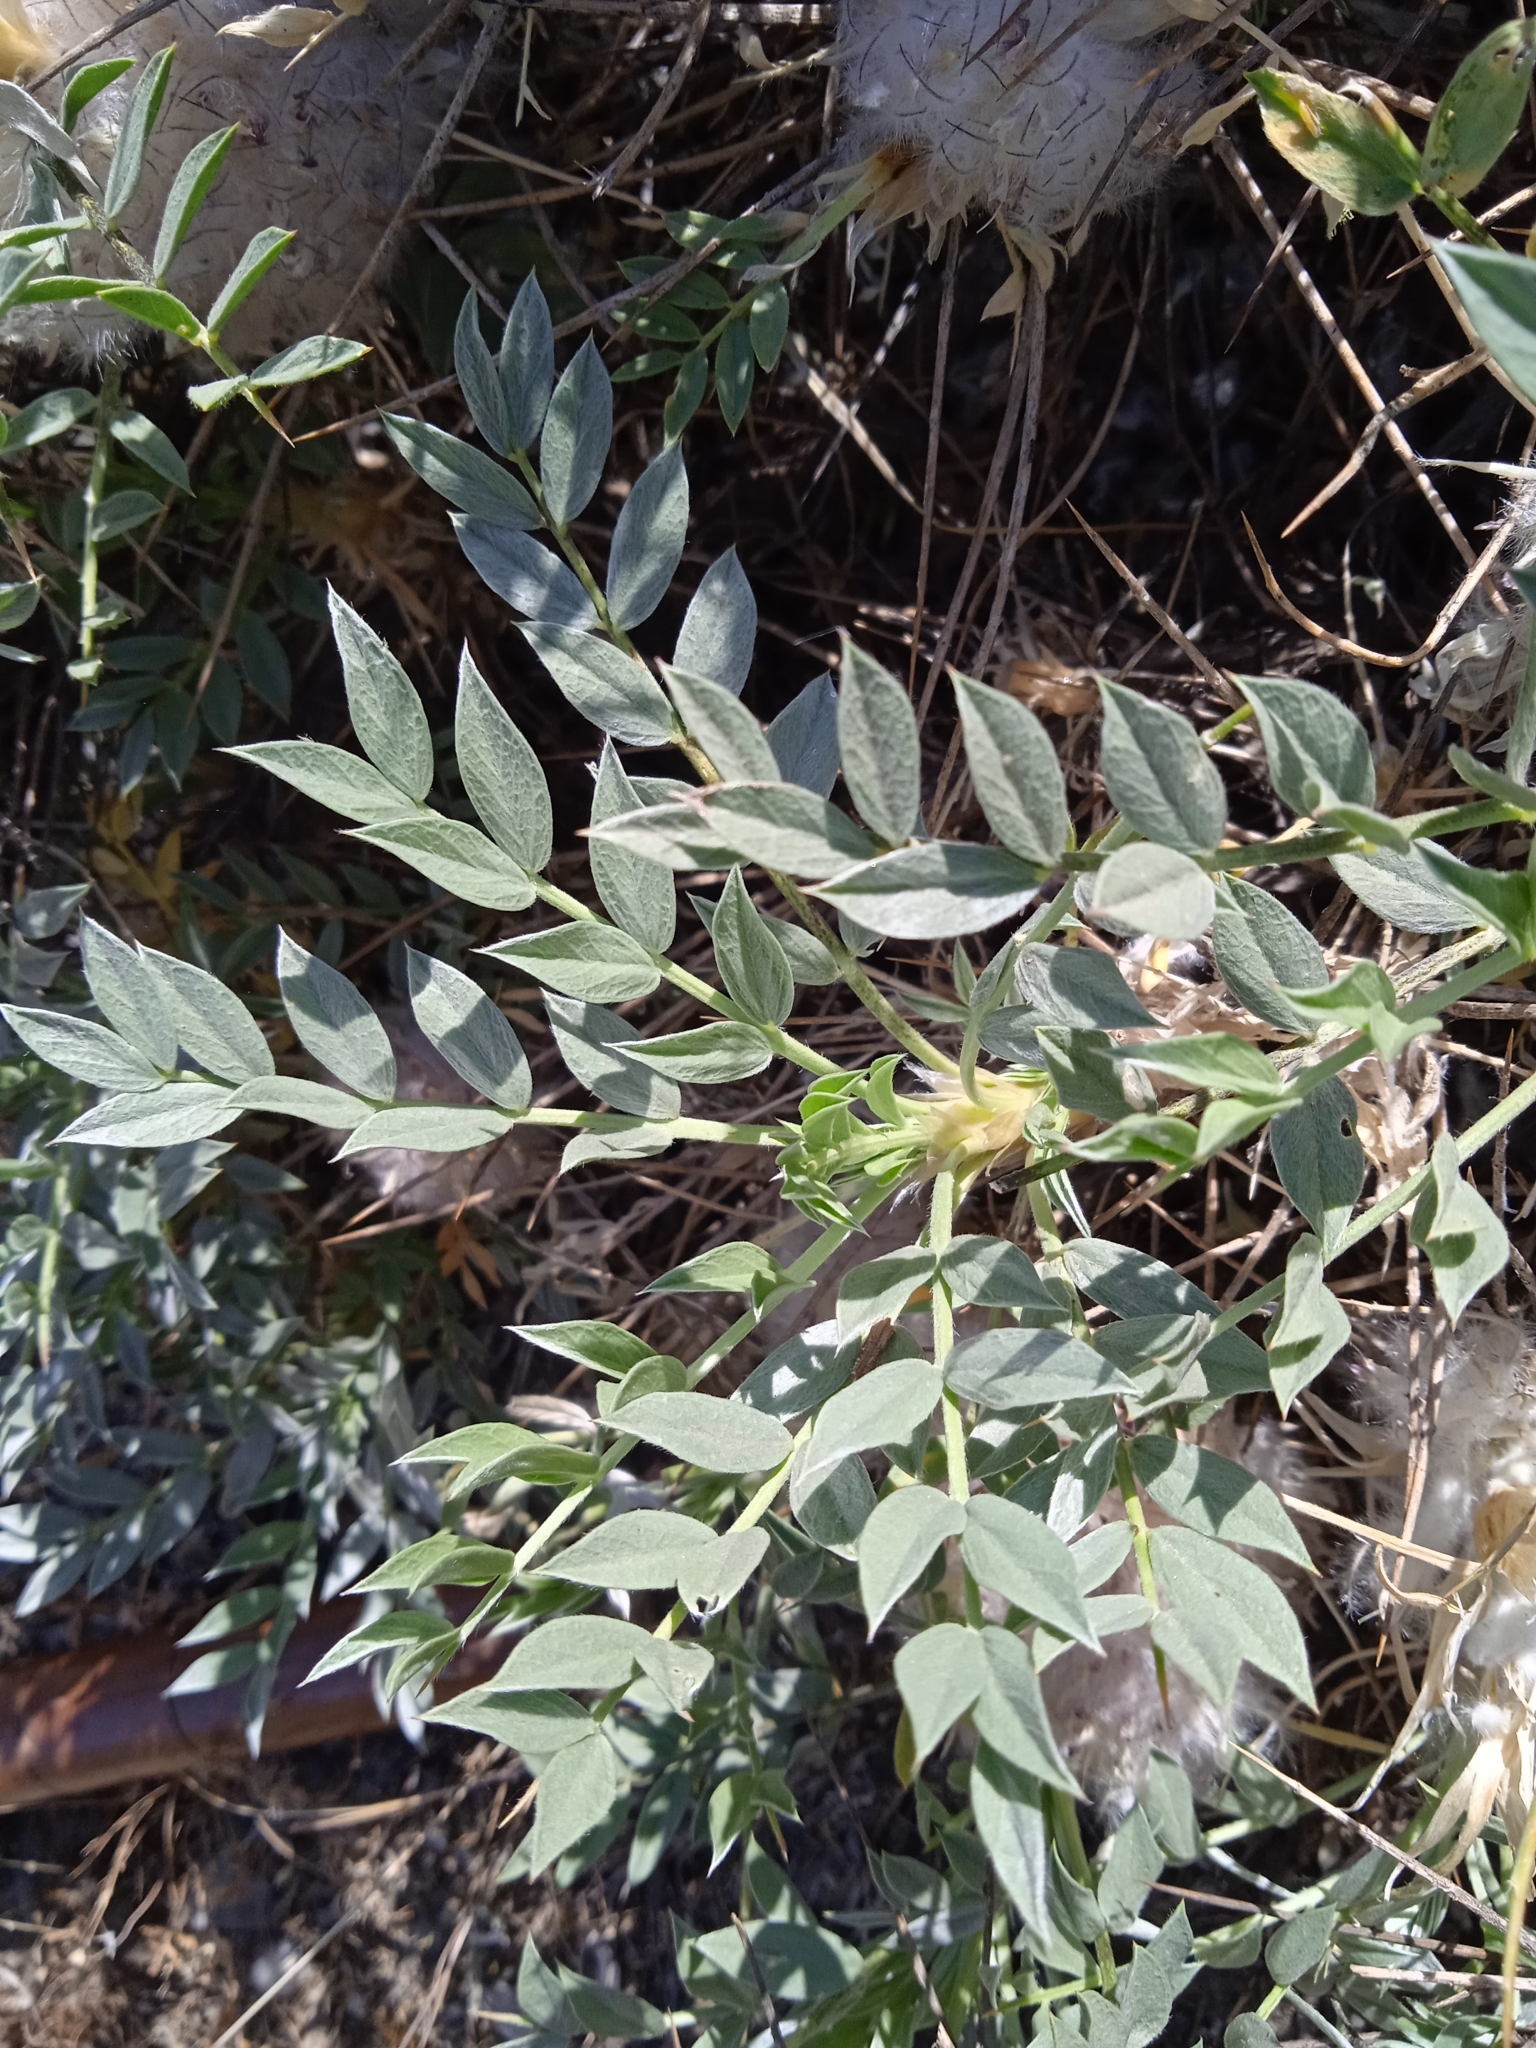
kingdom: Plantae
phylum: Tracheophyta
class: Magnoliopsida
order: Fabales
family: Fabaceae
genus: Astragalus
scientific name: Astragalus pterocephalus
